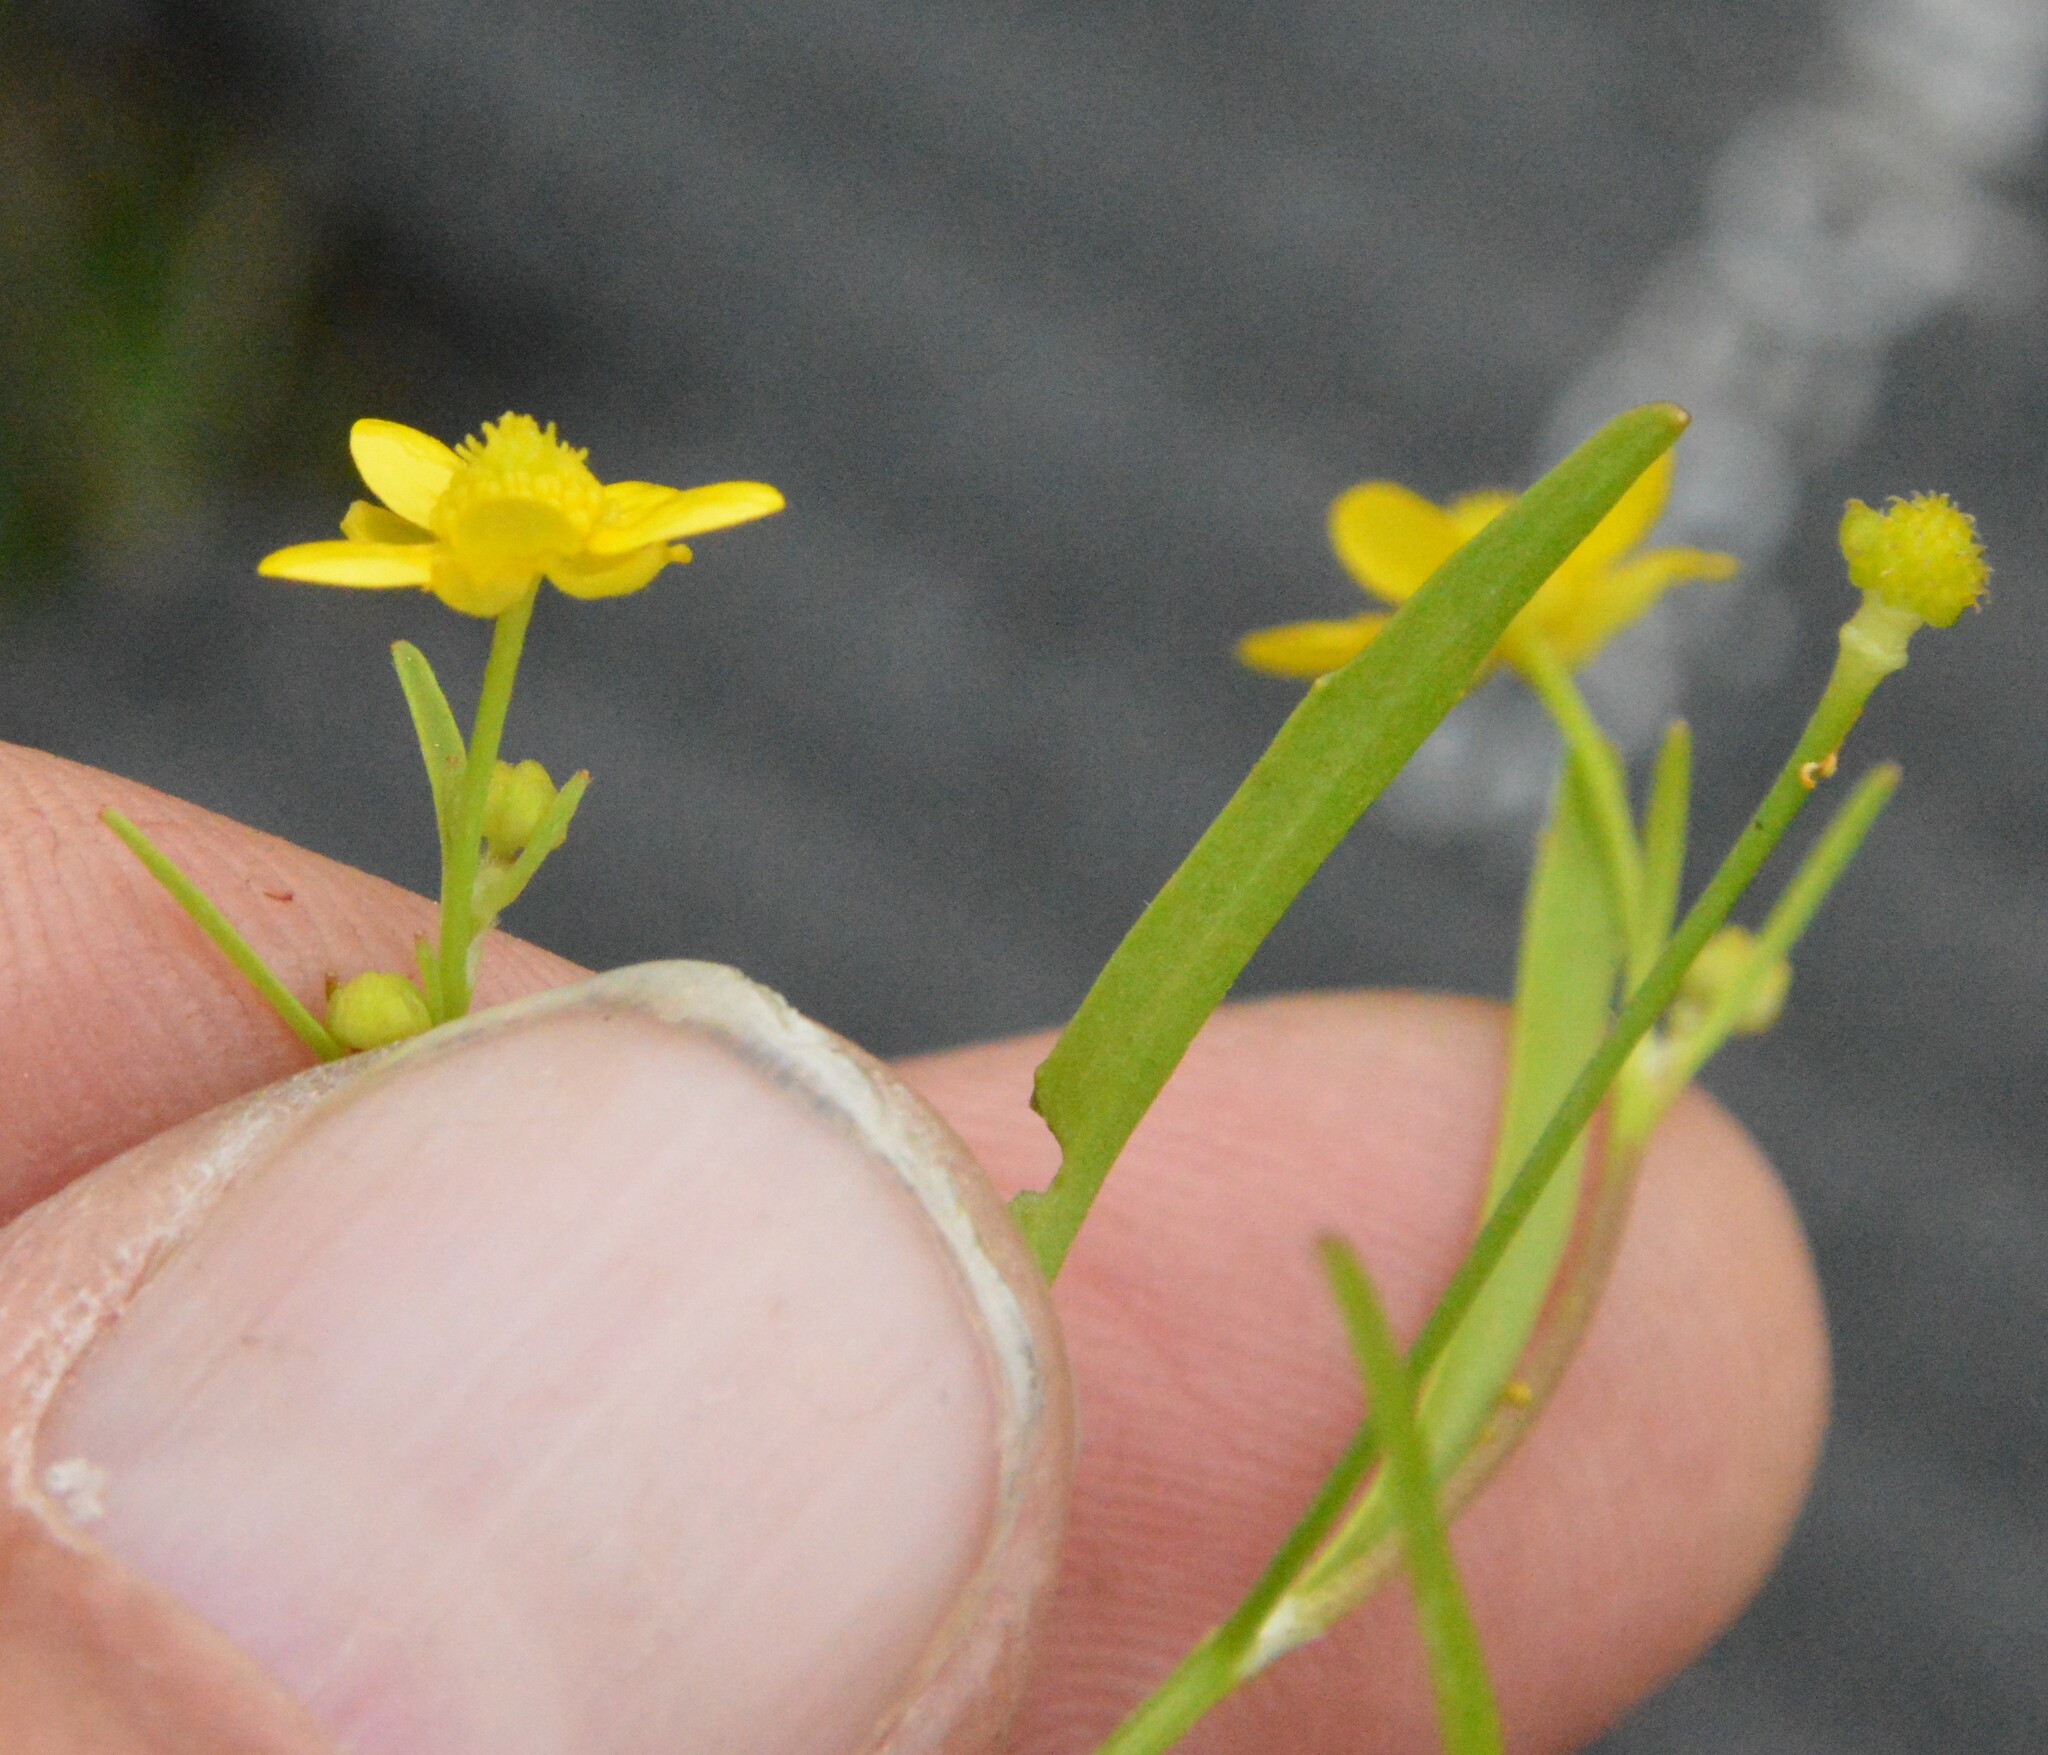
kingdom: Plantae
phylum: Tracheophyta
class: Magnoliopsida
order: Ranunculales
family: Ranunculaceae
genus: Ranunculus
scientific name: Ranunculus laxicaulis
